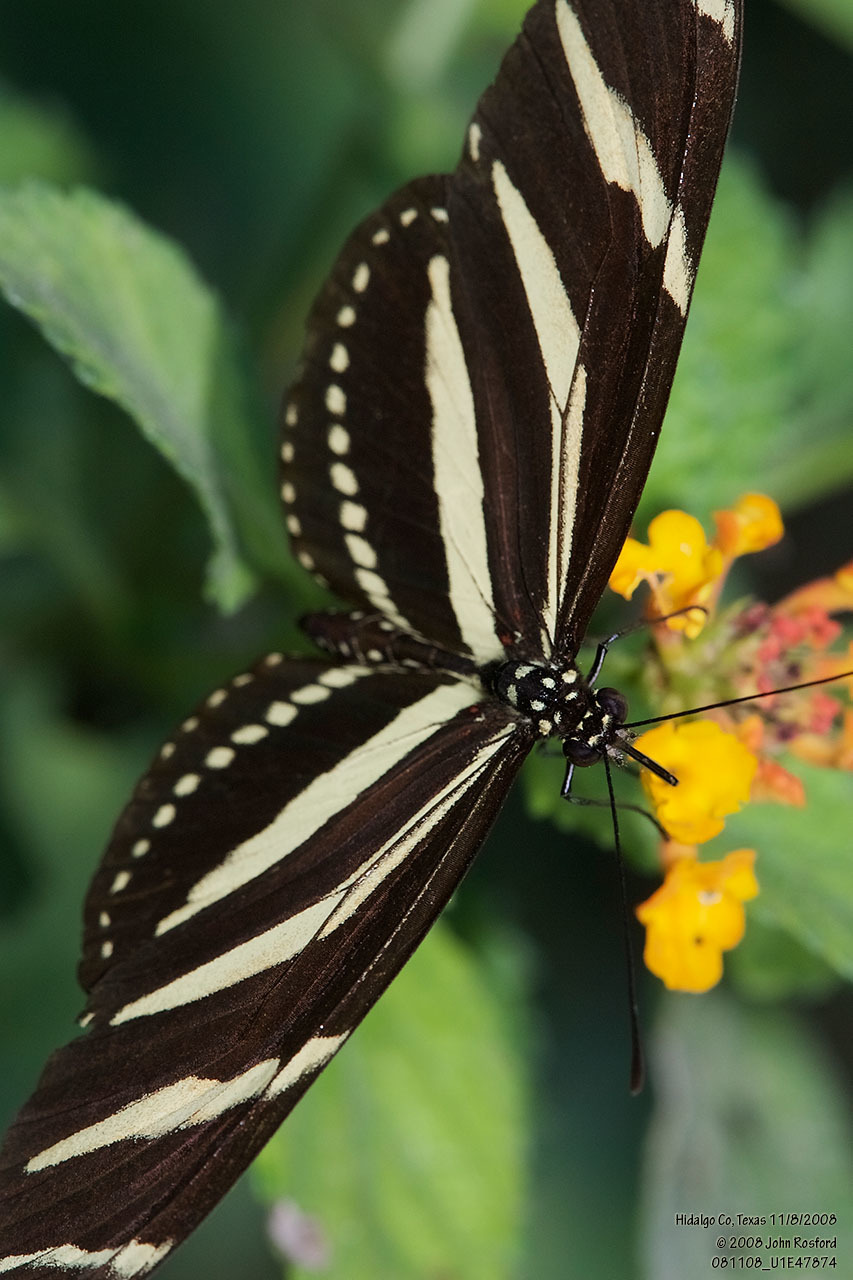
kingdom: Animalia
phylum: Arthropoda
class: Insecta
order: Lepidoptera
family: Nymphalidae
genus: Heliconius
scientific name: Heliconius charithonia
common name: Zebra long wing
